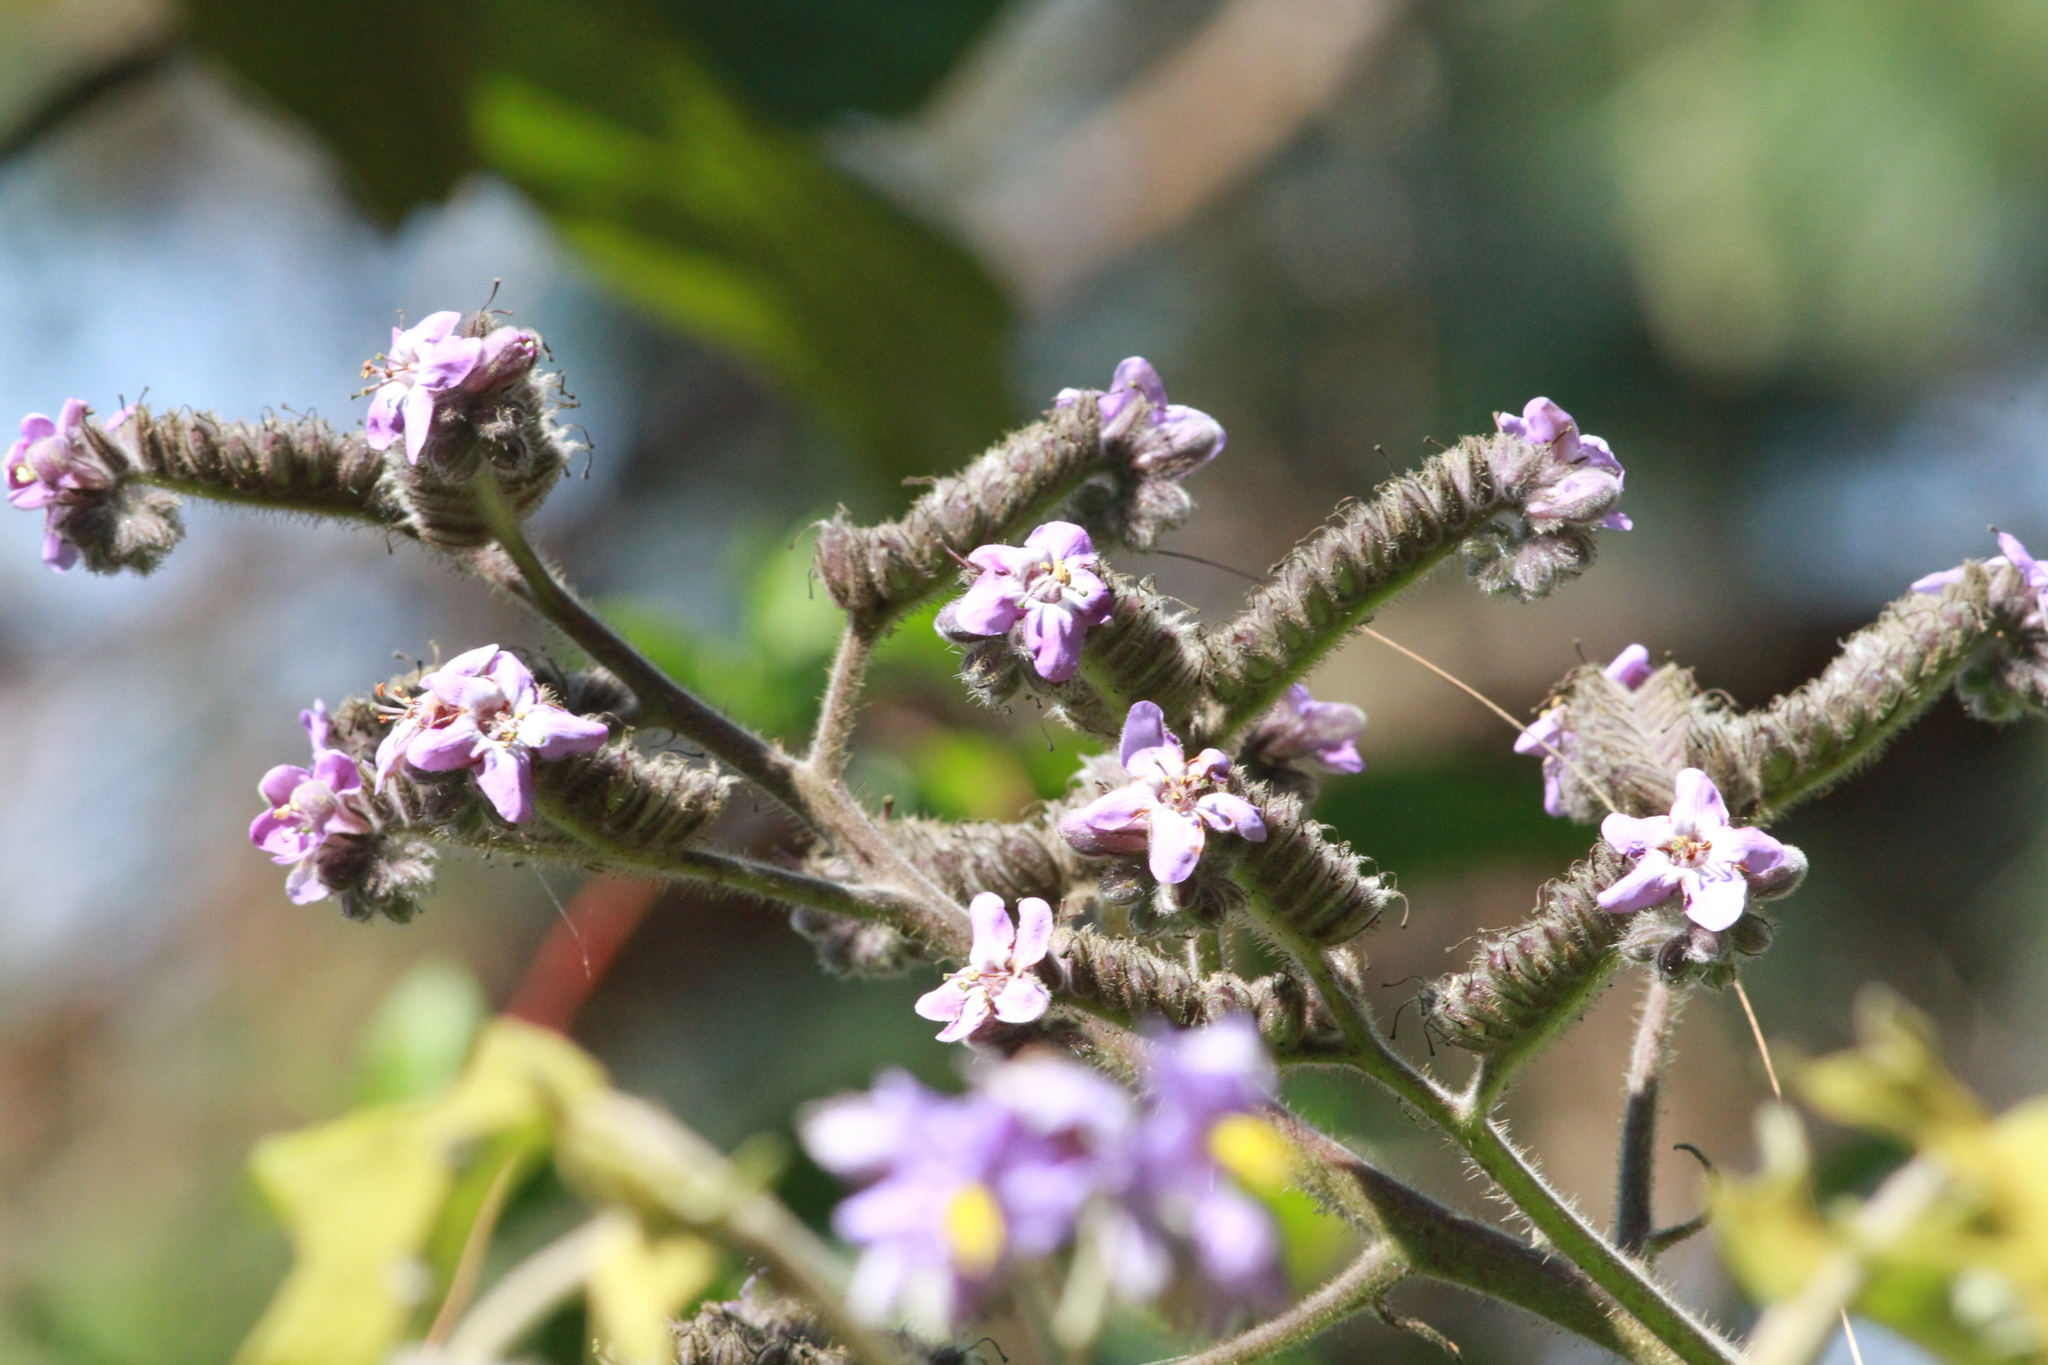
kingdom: Plantae
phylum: Tracheophyta
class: Magnoliopsida
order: Boraginales
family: Namaceae
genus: Wigandia
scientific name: Wigandia urens
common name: Caracus wigandia
